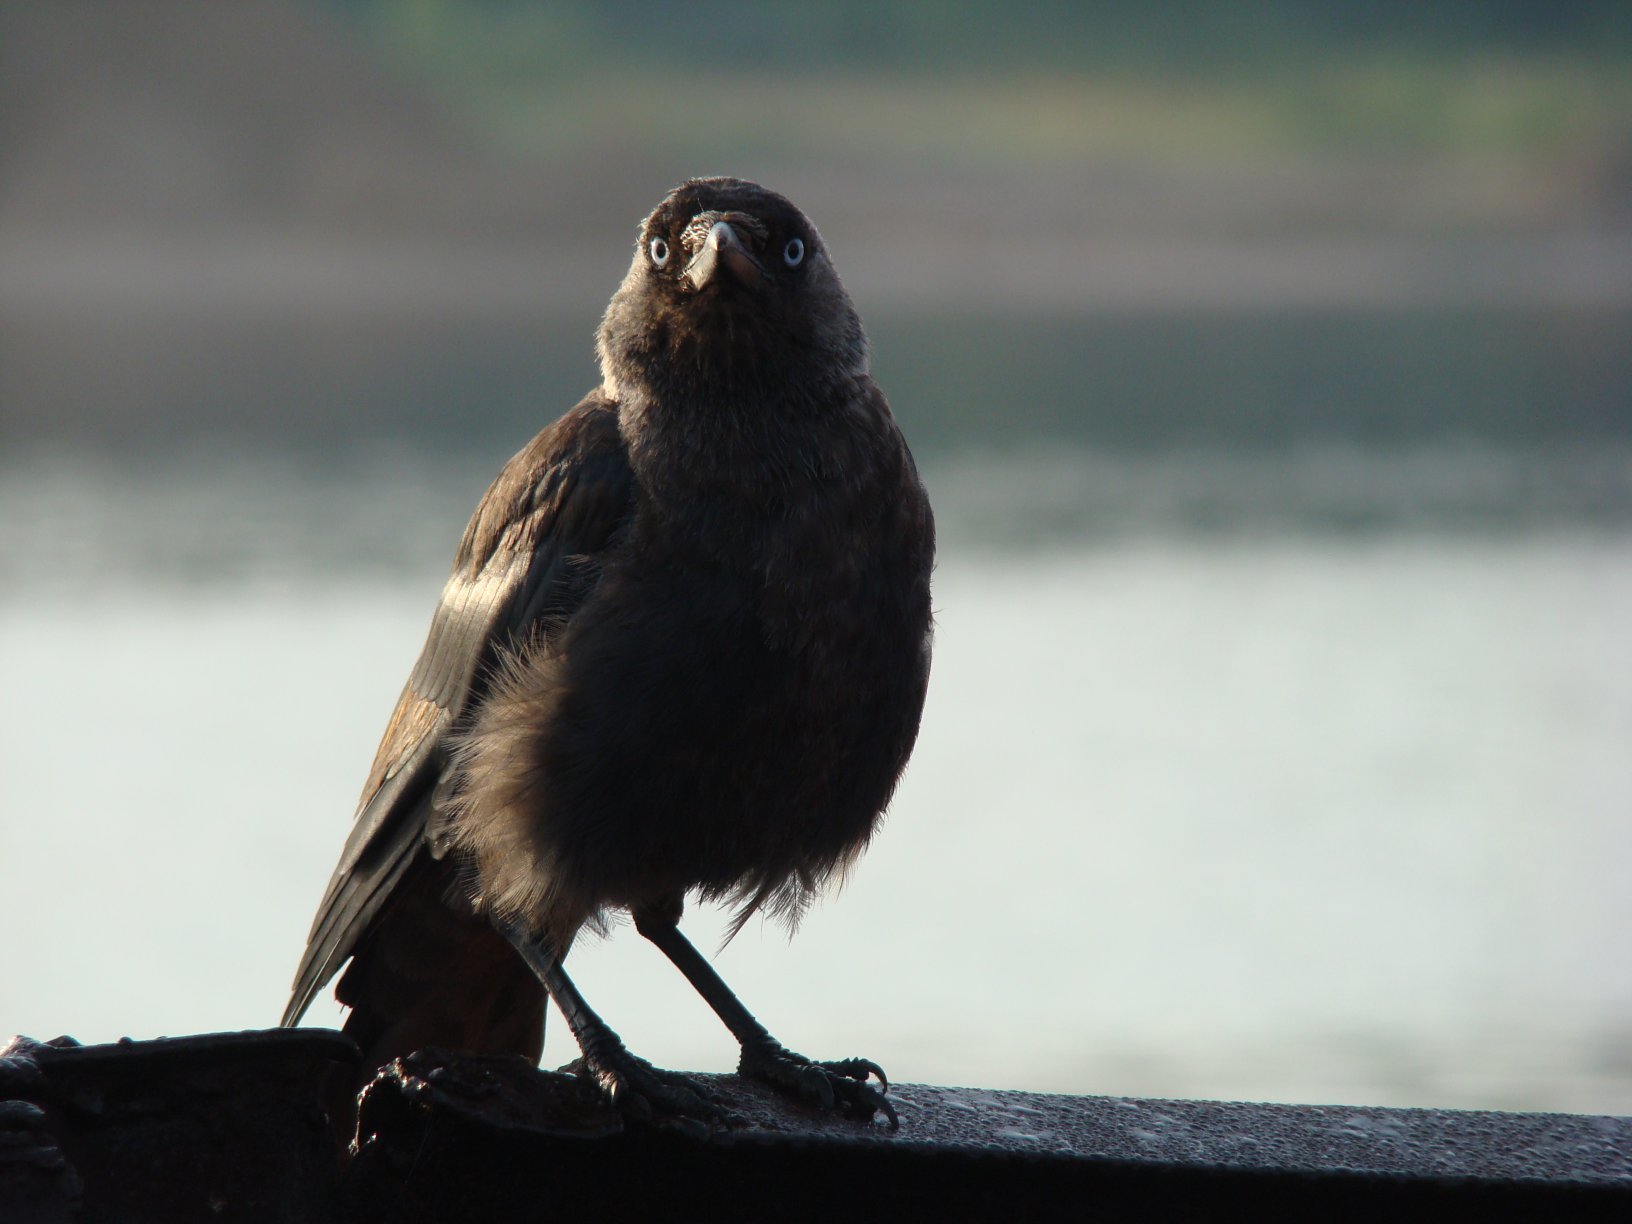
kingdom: Animalia
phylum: Chordata
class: Aves
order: Passeriformes
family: Corvidae
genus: Coloeus
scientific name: Coloeus monedula
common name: Western jackdaw
